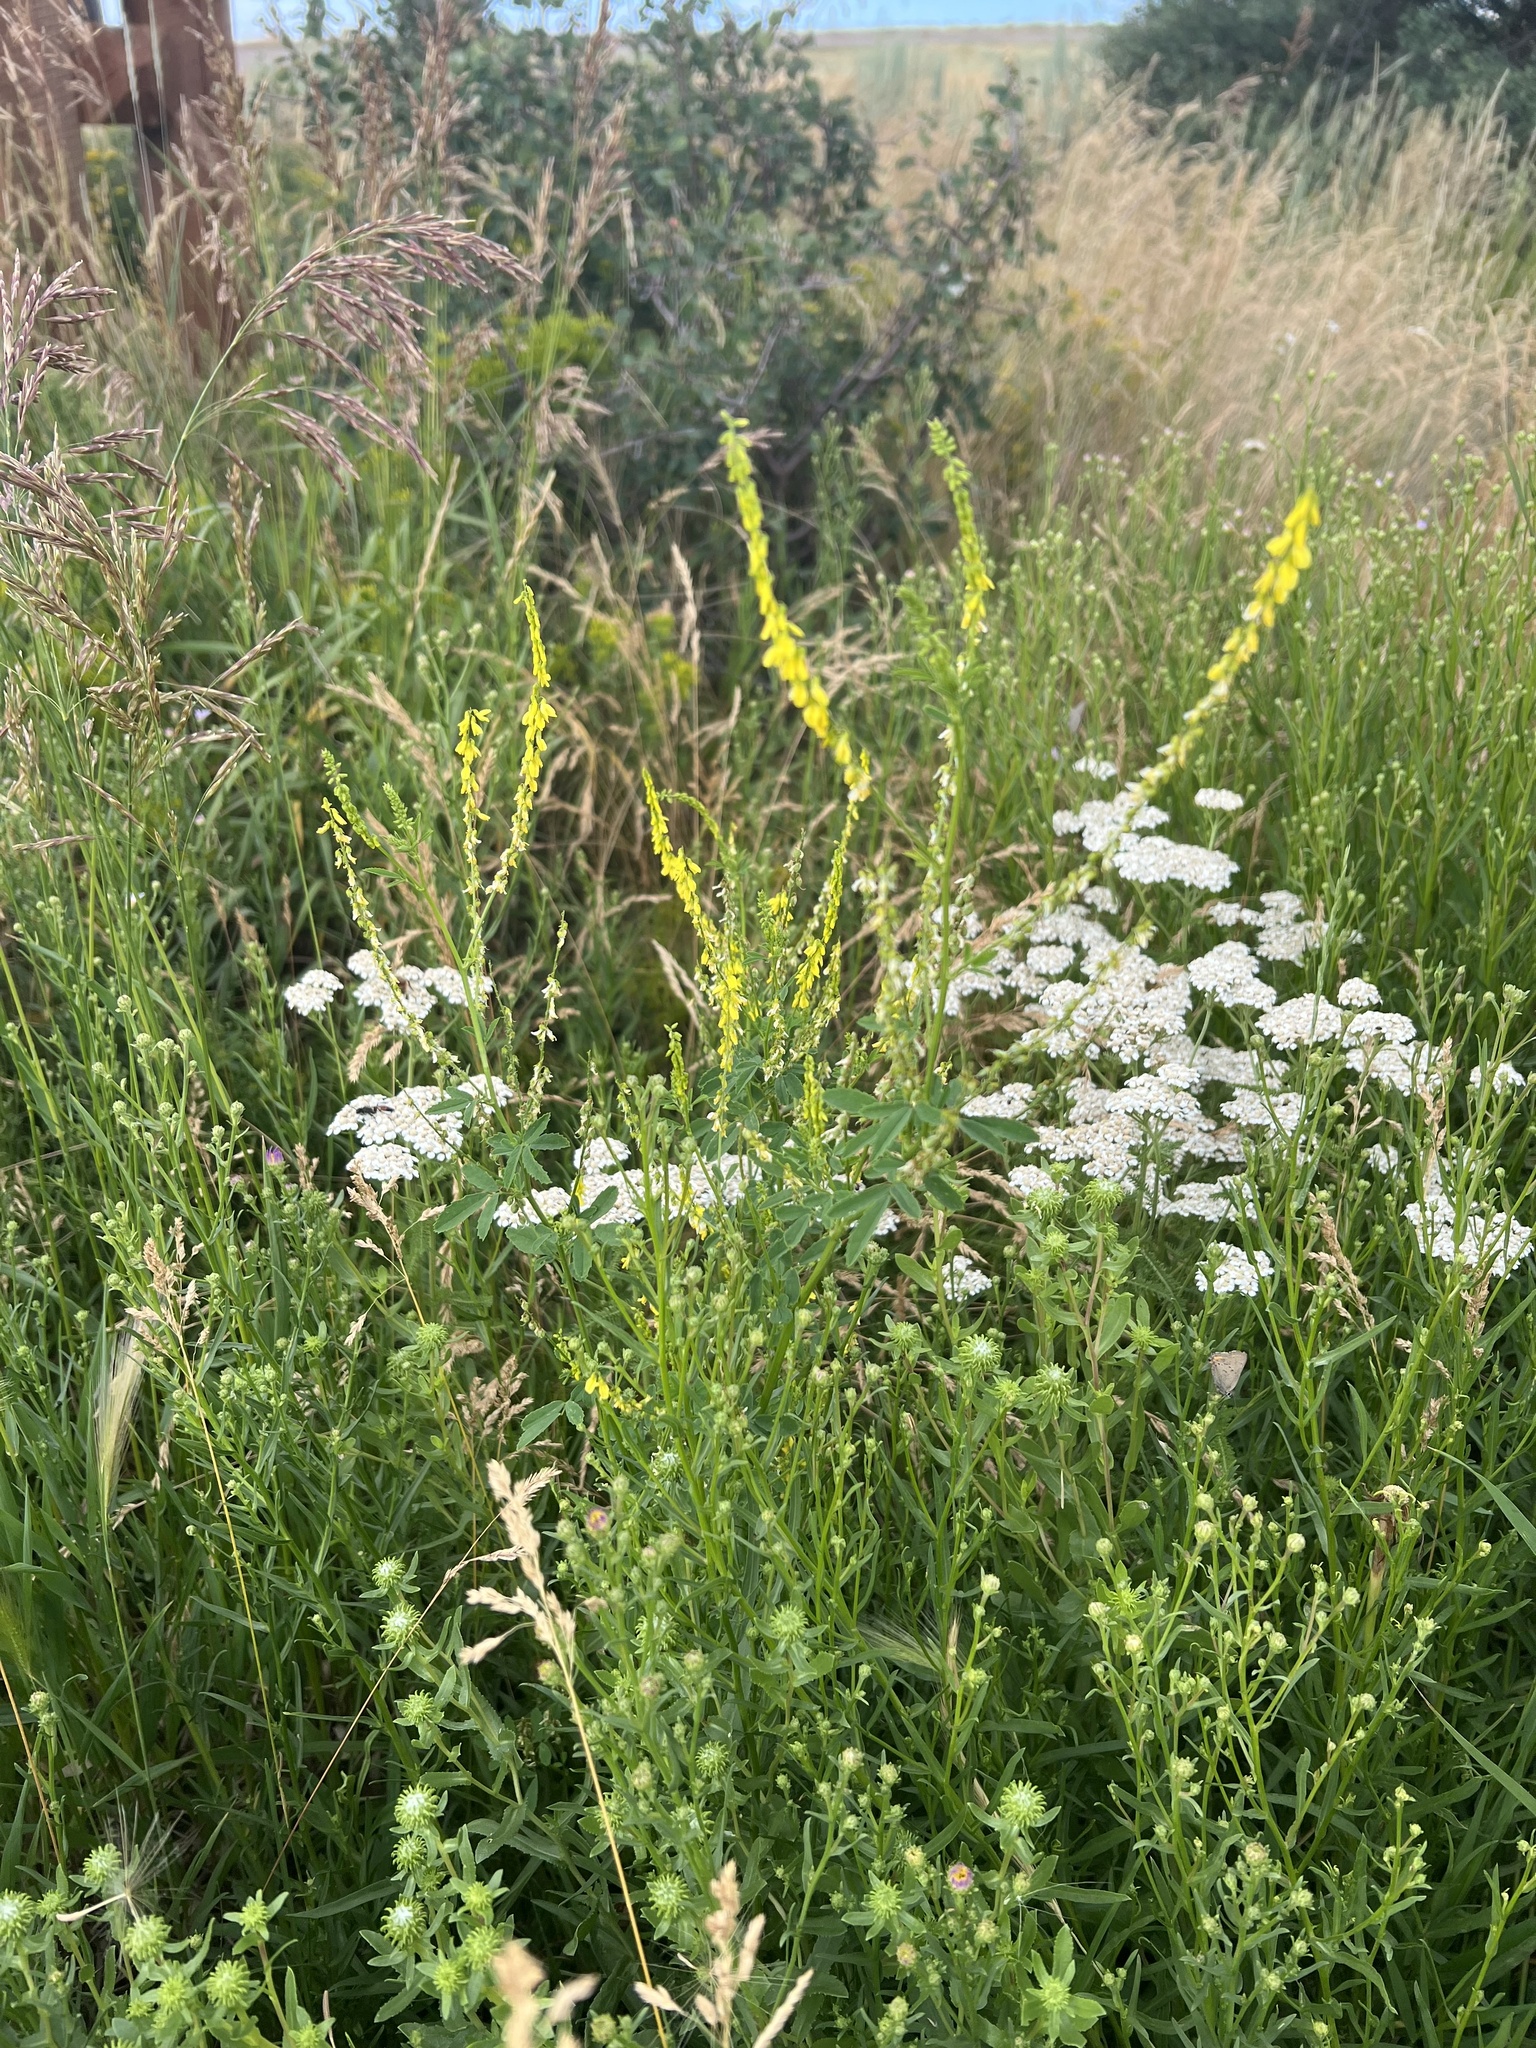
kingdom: Plantae
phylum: Tracheophyta
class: Magnoliopsida
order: Fabales
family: Fabaceae
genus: Melilotus
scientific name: Melilotus officinalis
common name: Sweetclover
